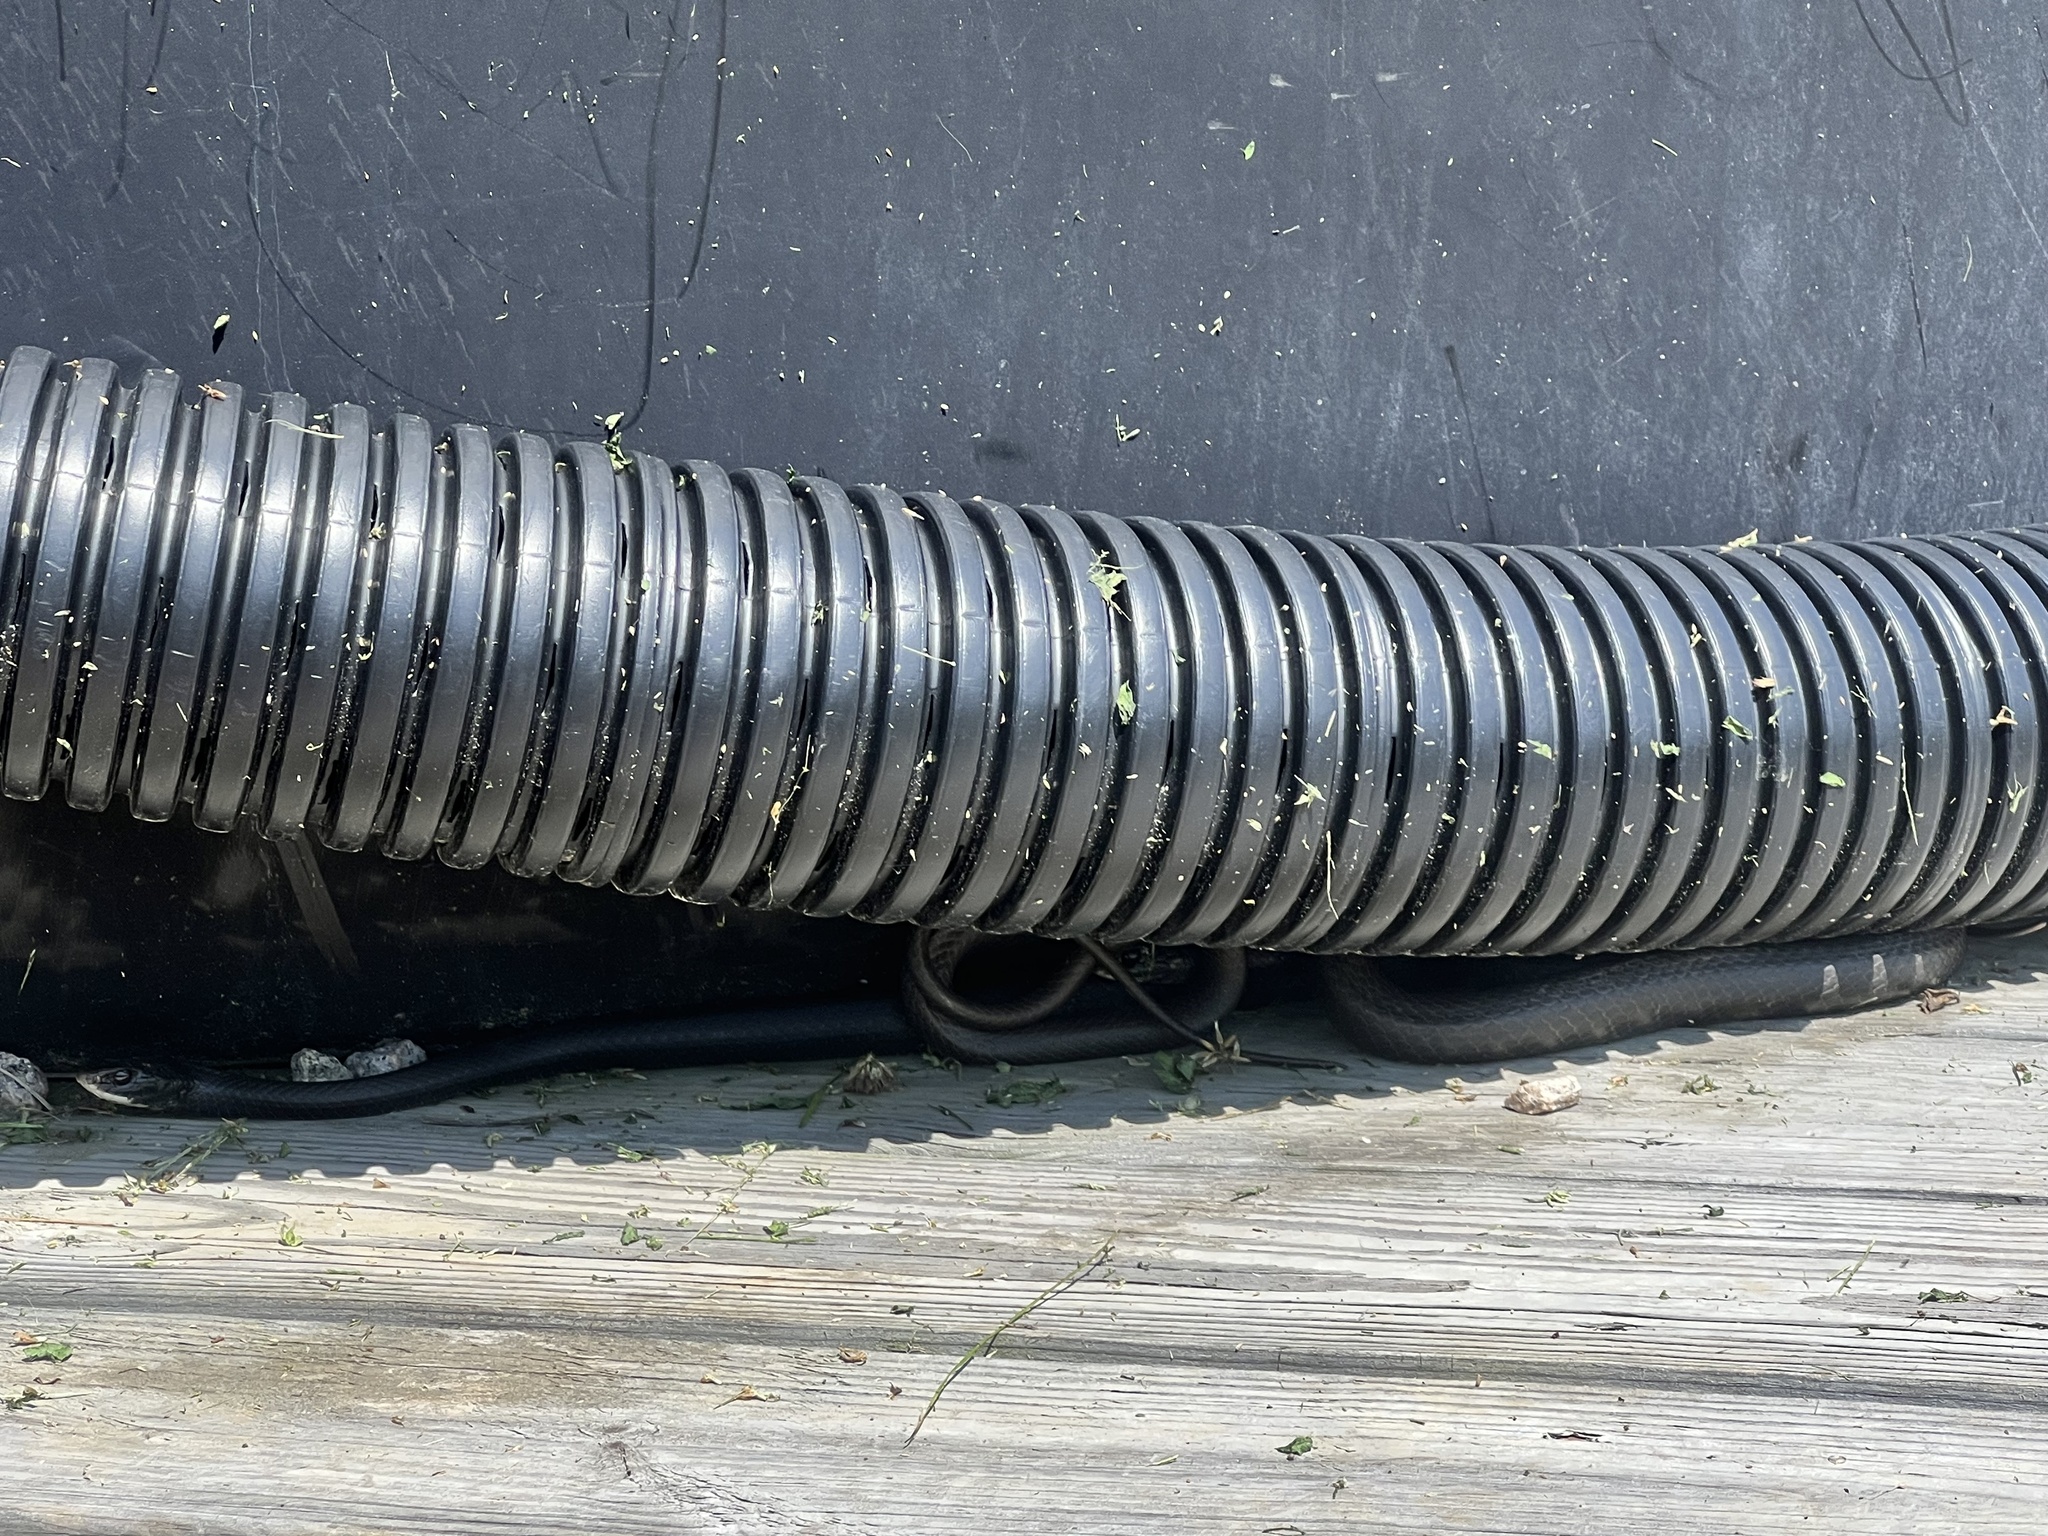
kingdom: Animalia
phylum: Chordata
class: Squamata
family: Colubridae
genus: Coluber
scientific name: Coluber constrictor
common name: Eastern racer
